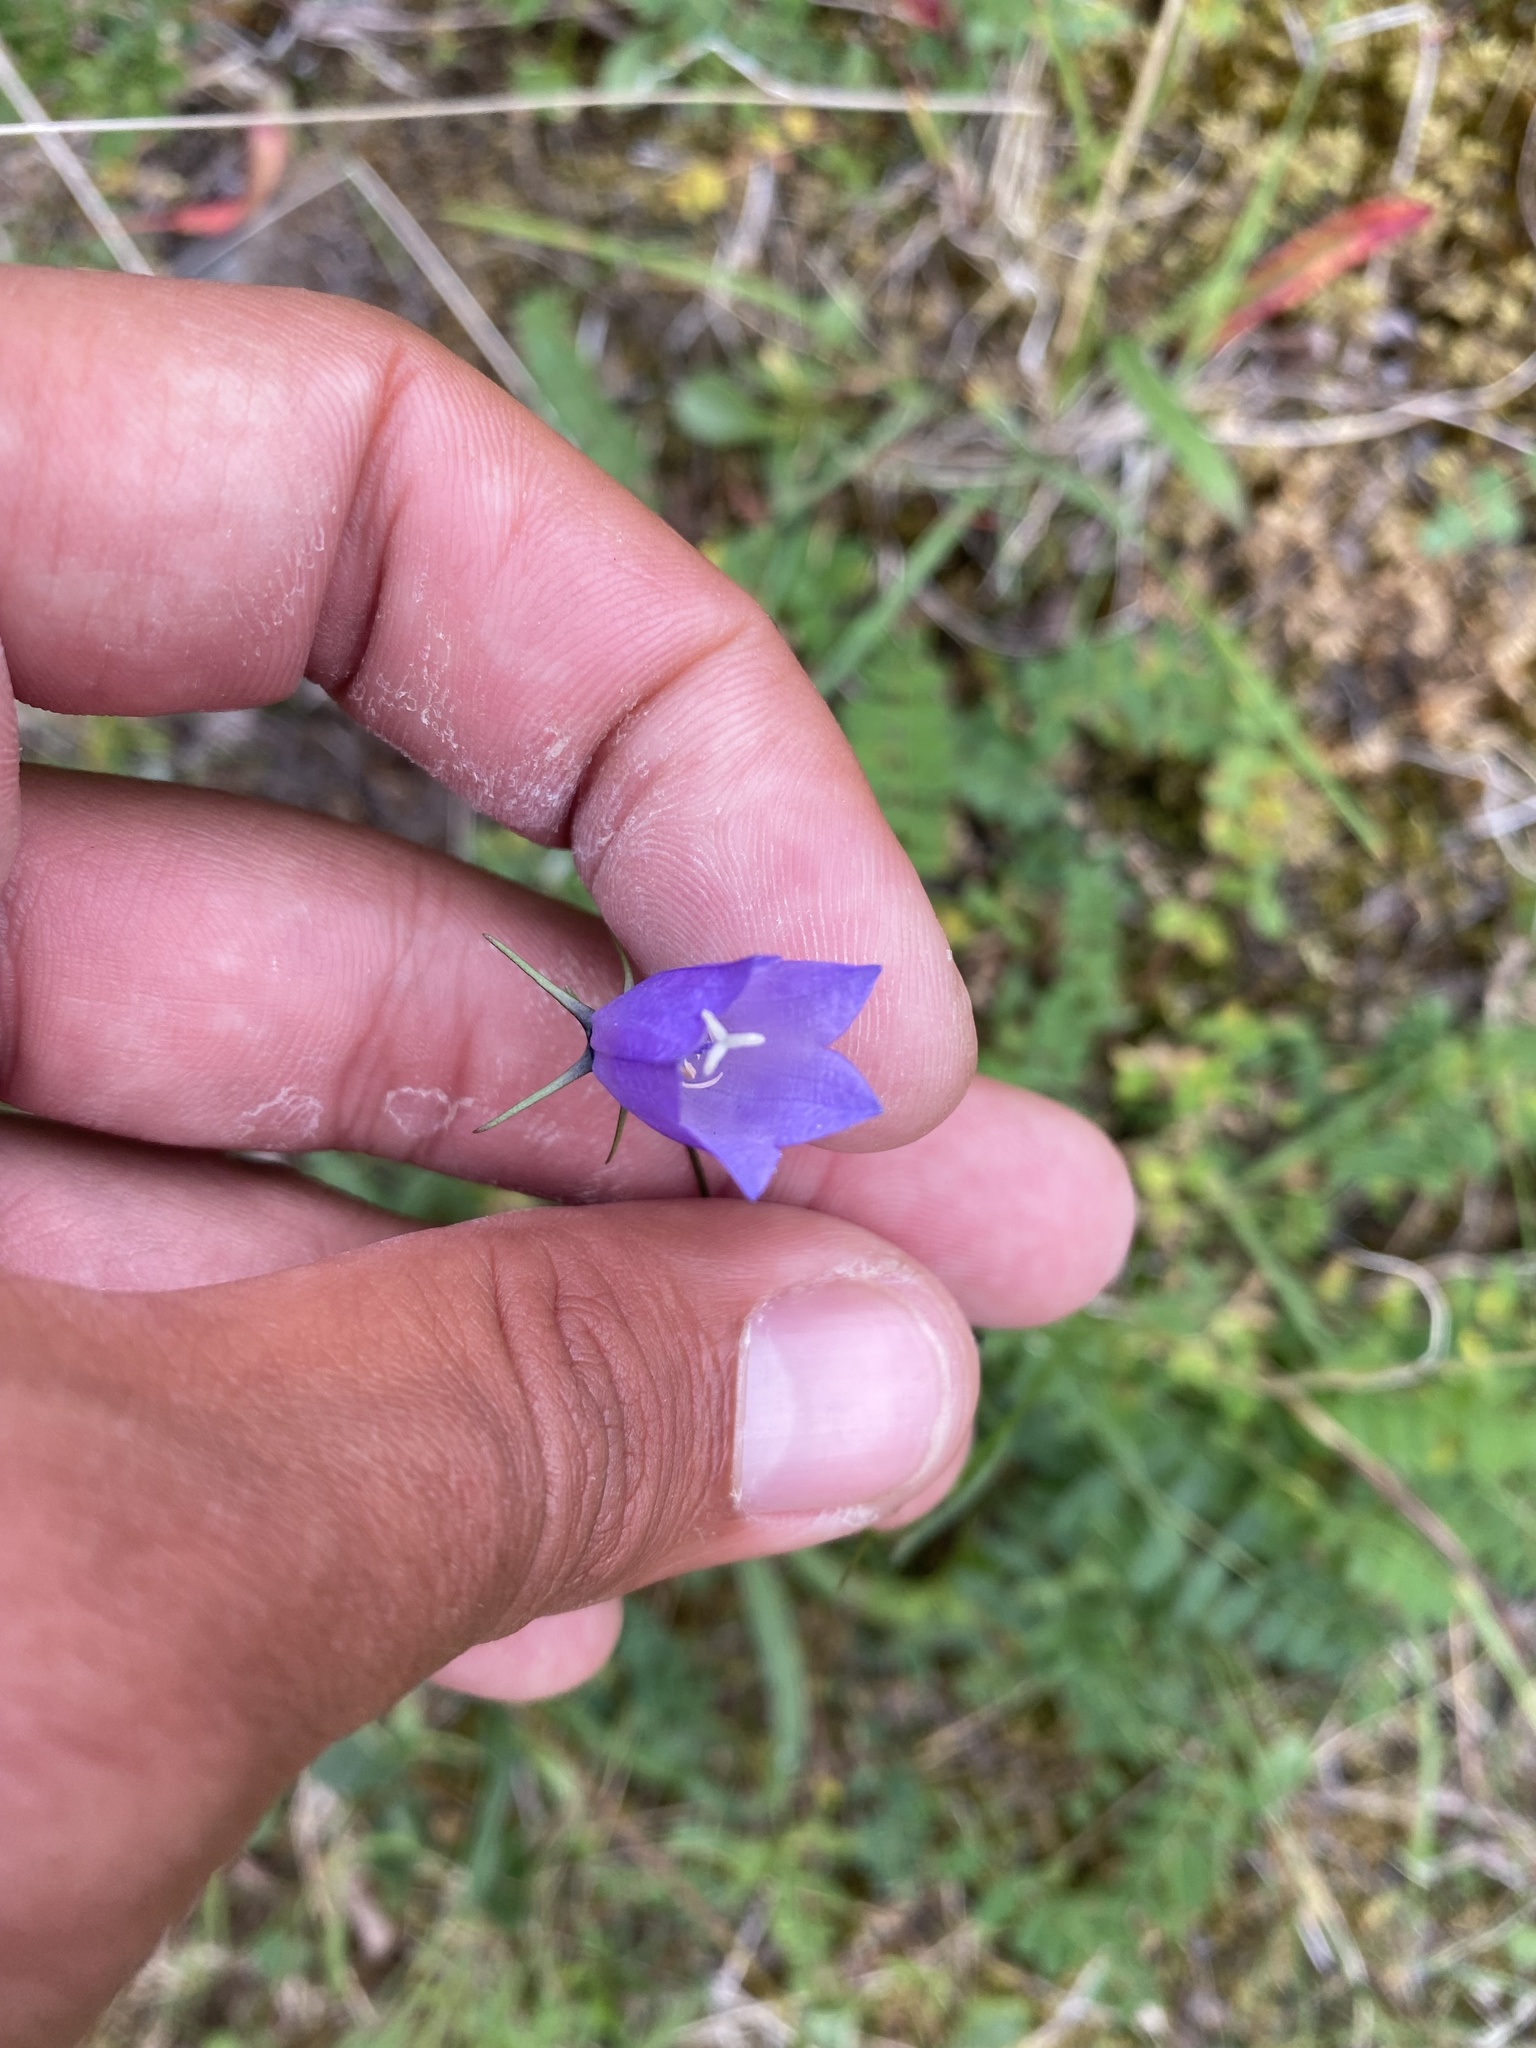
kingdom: Plantae
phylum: Tracheophyta
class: Magnoliopsida
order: Asterales
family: Campanulaceae
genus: Campanula
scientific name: Campanula rotundifolia
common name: Harebell
